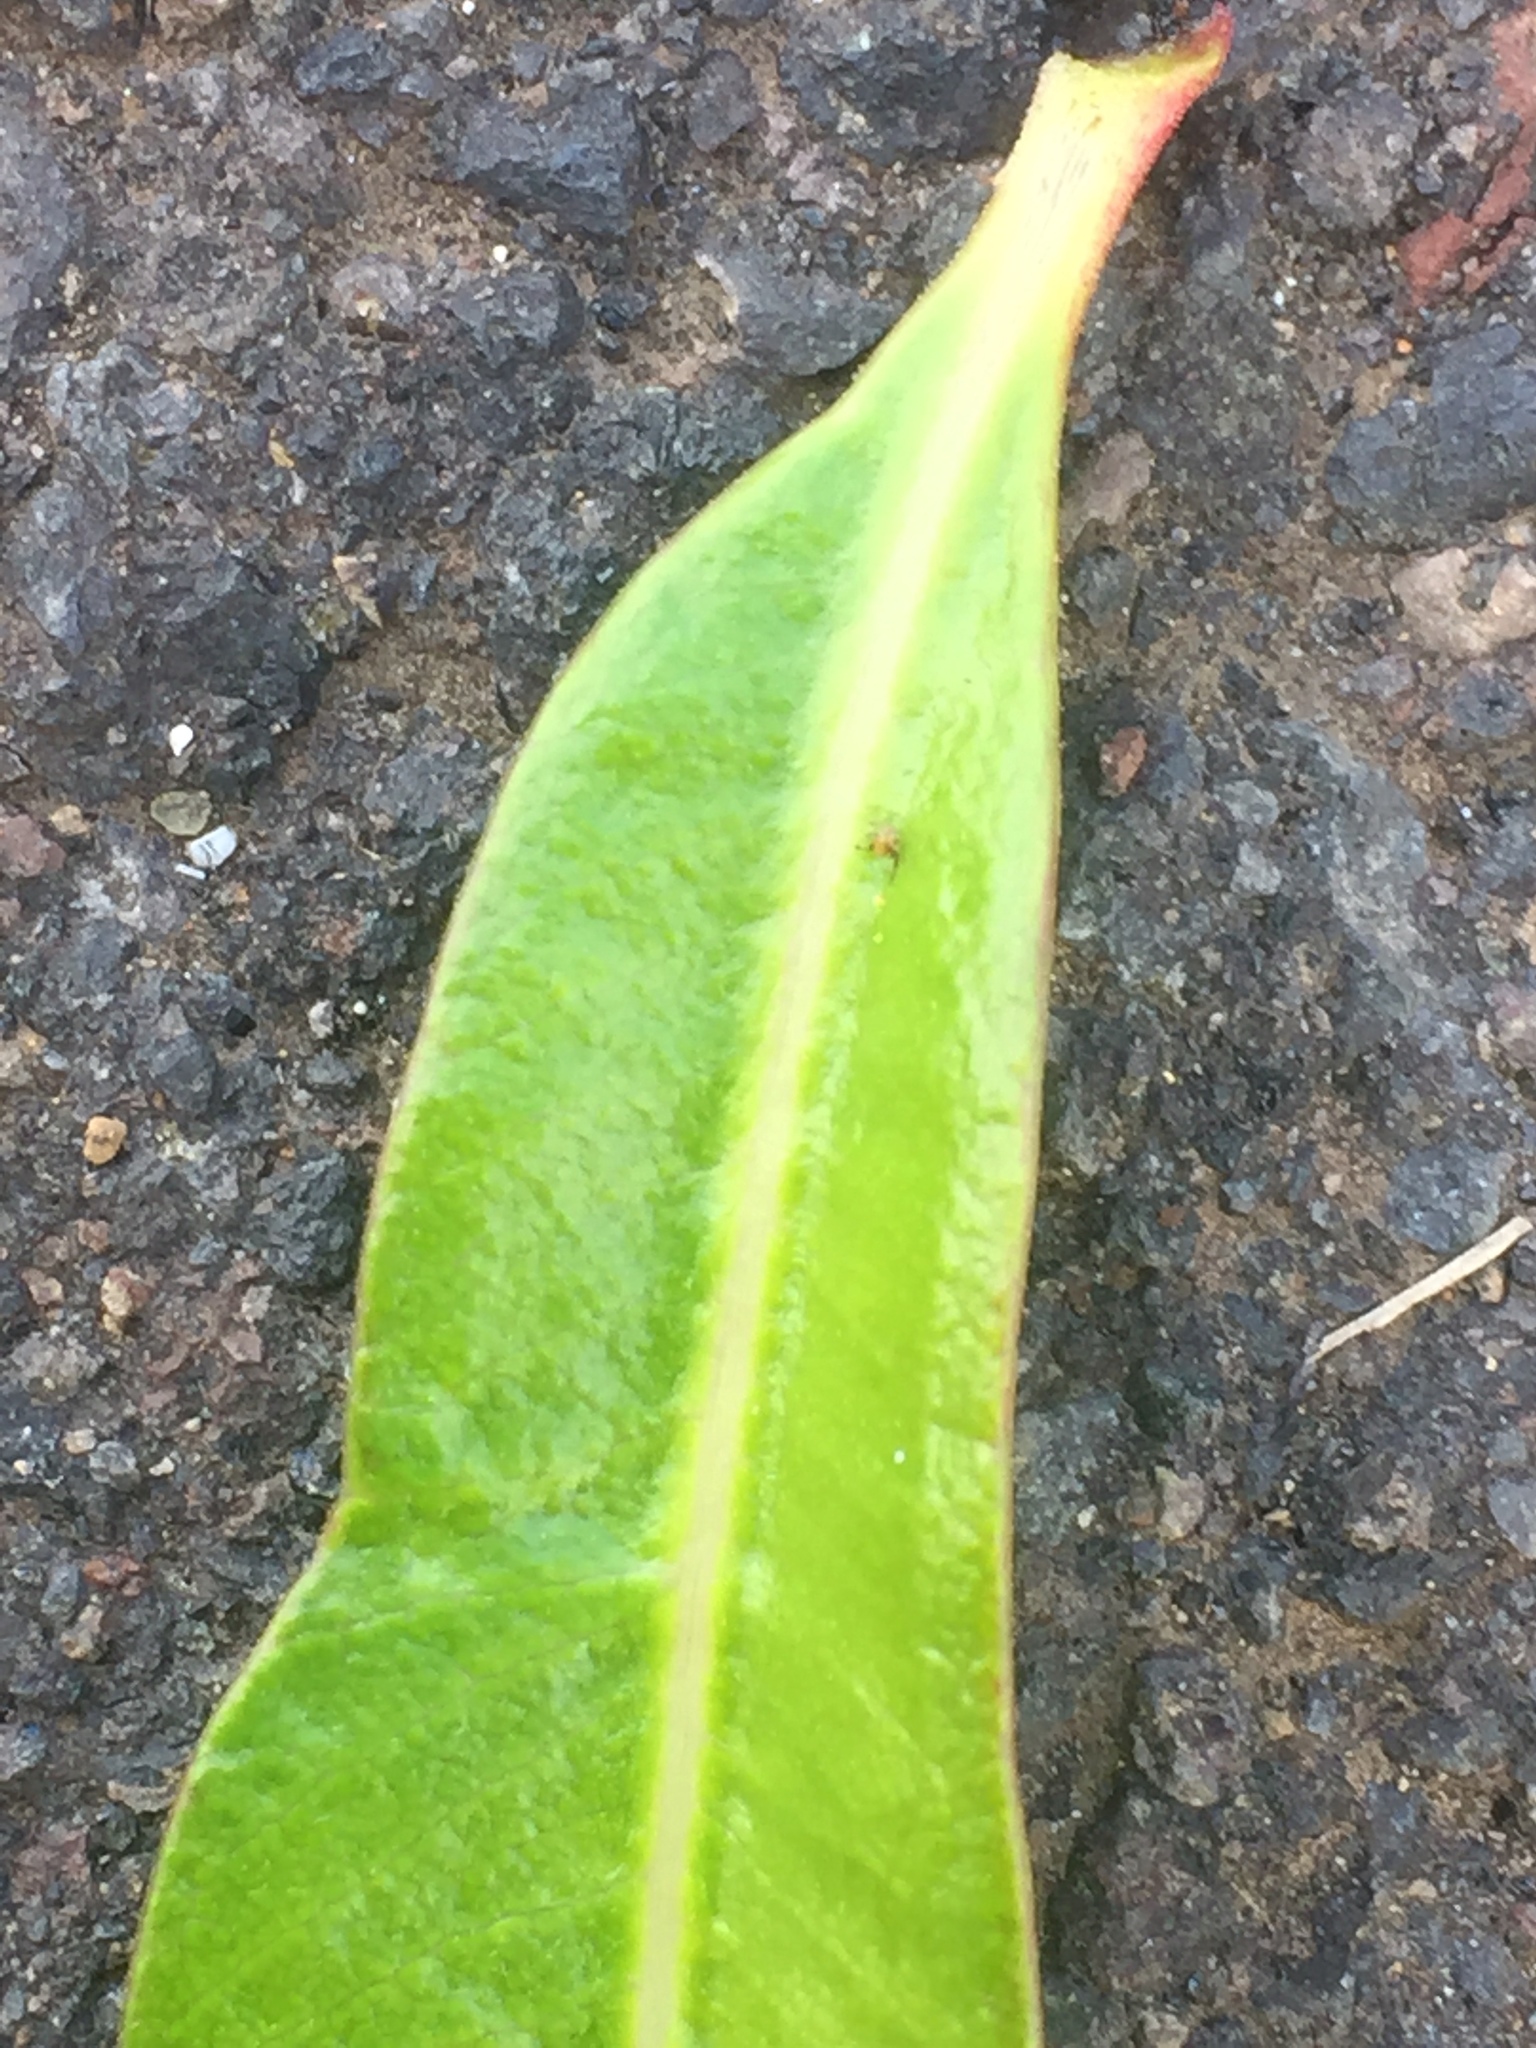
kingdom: Plantae
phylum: Tracheophyta
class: Magnoliopsida
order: Gentianales
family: Apocynaceae
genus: Nerium
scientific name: Nerium oleander
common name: Oleander
